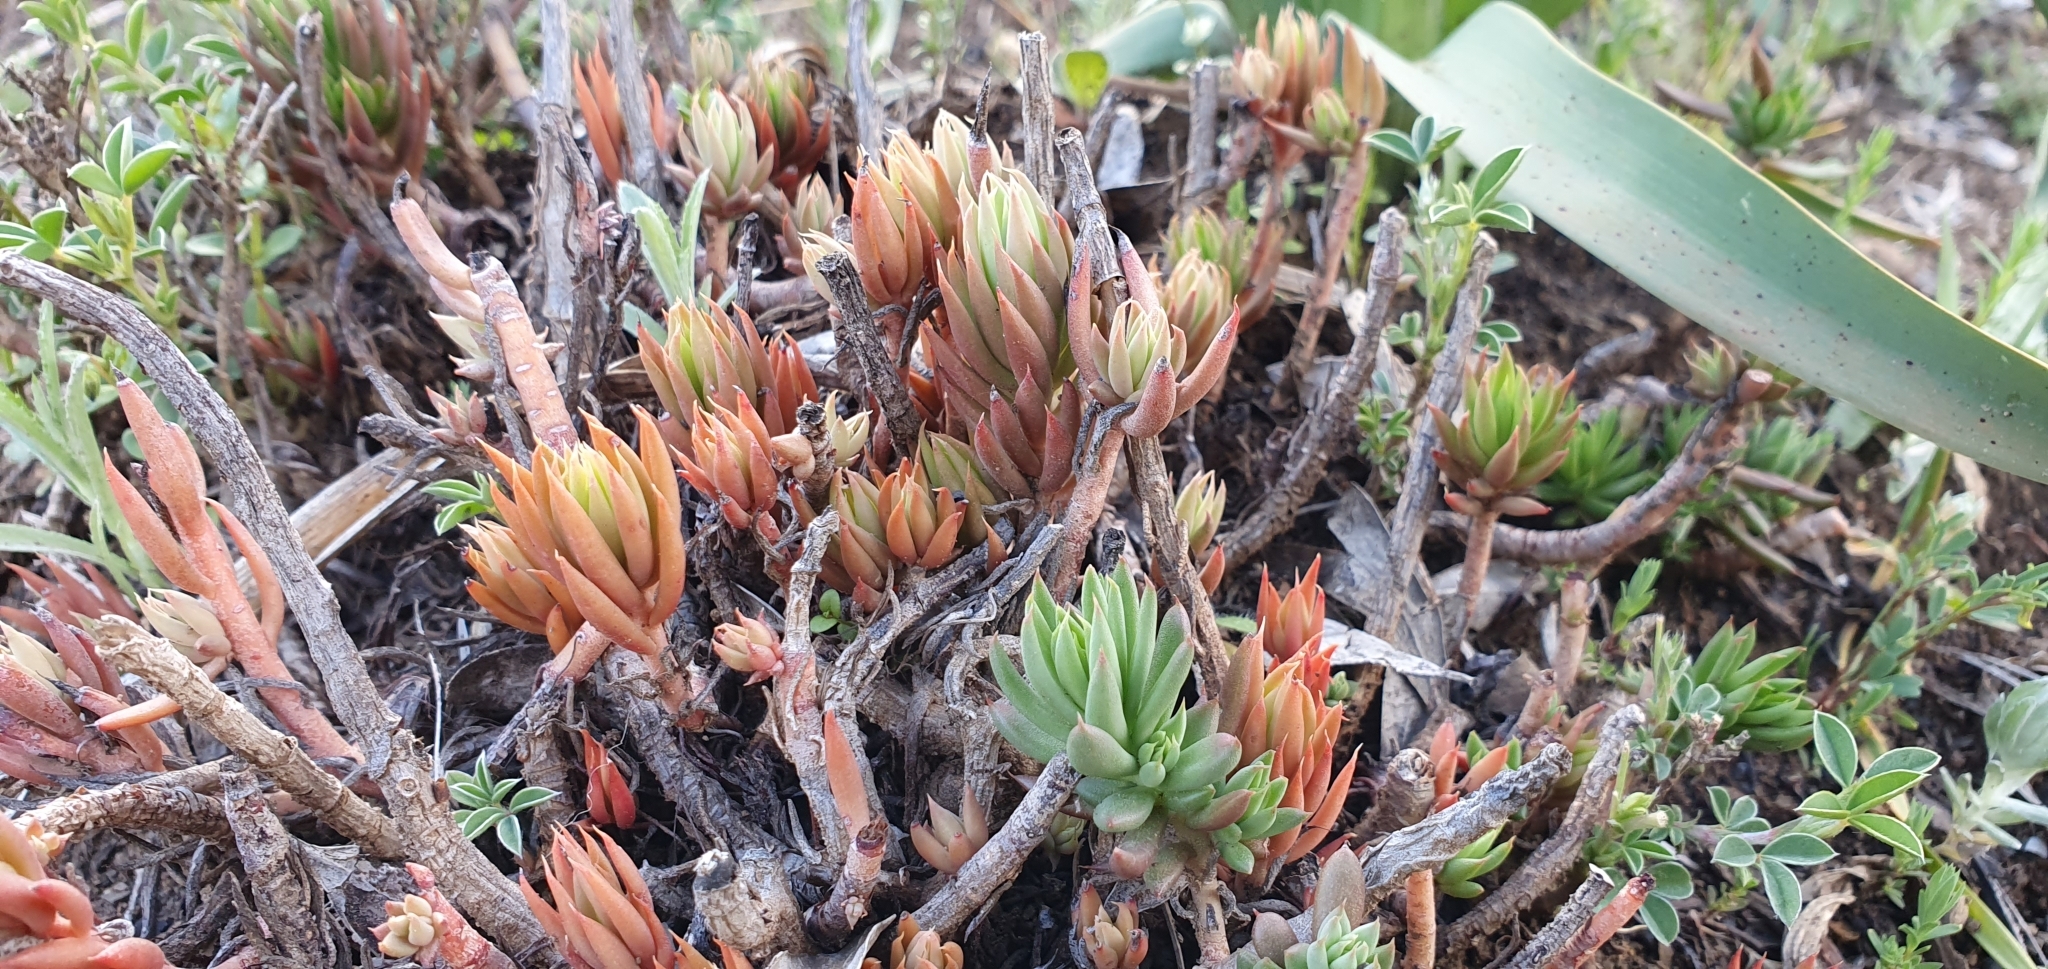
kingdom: Plantae
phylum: Tracheophyta
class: Magnoliopsida
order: Saxifragales
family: Crassulaceae
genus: Petrosedum
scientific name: Petrosedum sediforme
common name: Pale stonecrop
